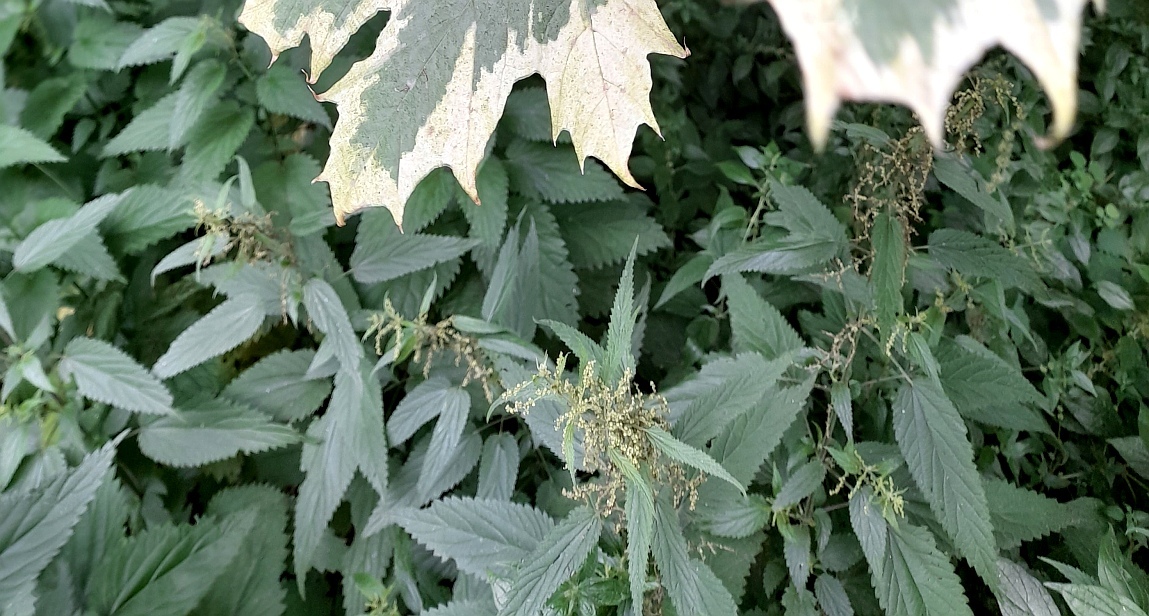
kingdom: Plantae
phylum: Tracheophyta
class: Magnoliopsida
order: Rosales
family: Urticaceae
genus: Urtica
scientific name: Urtica dioica
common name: Common nettle
